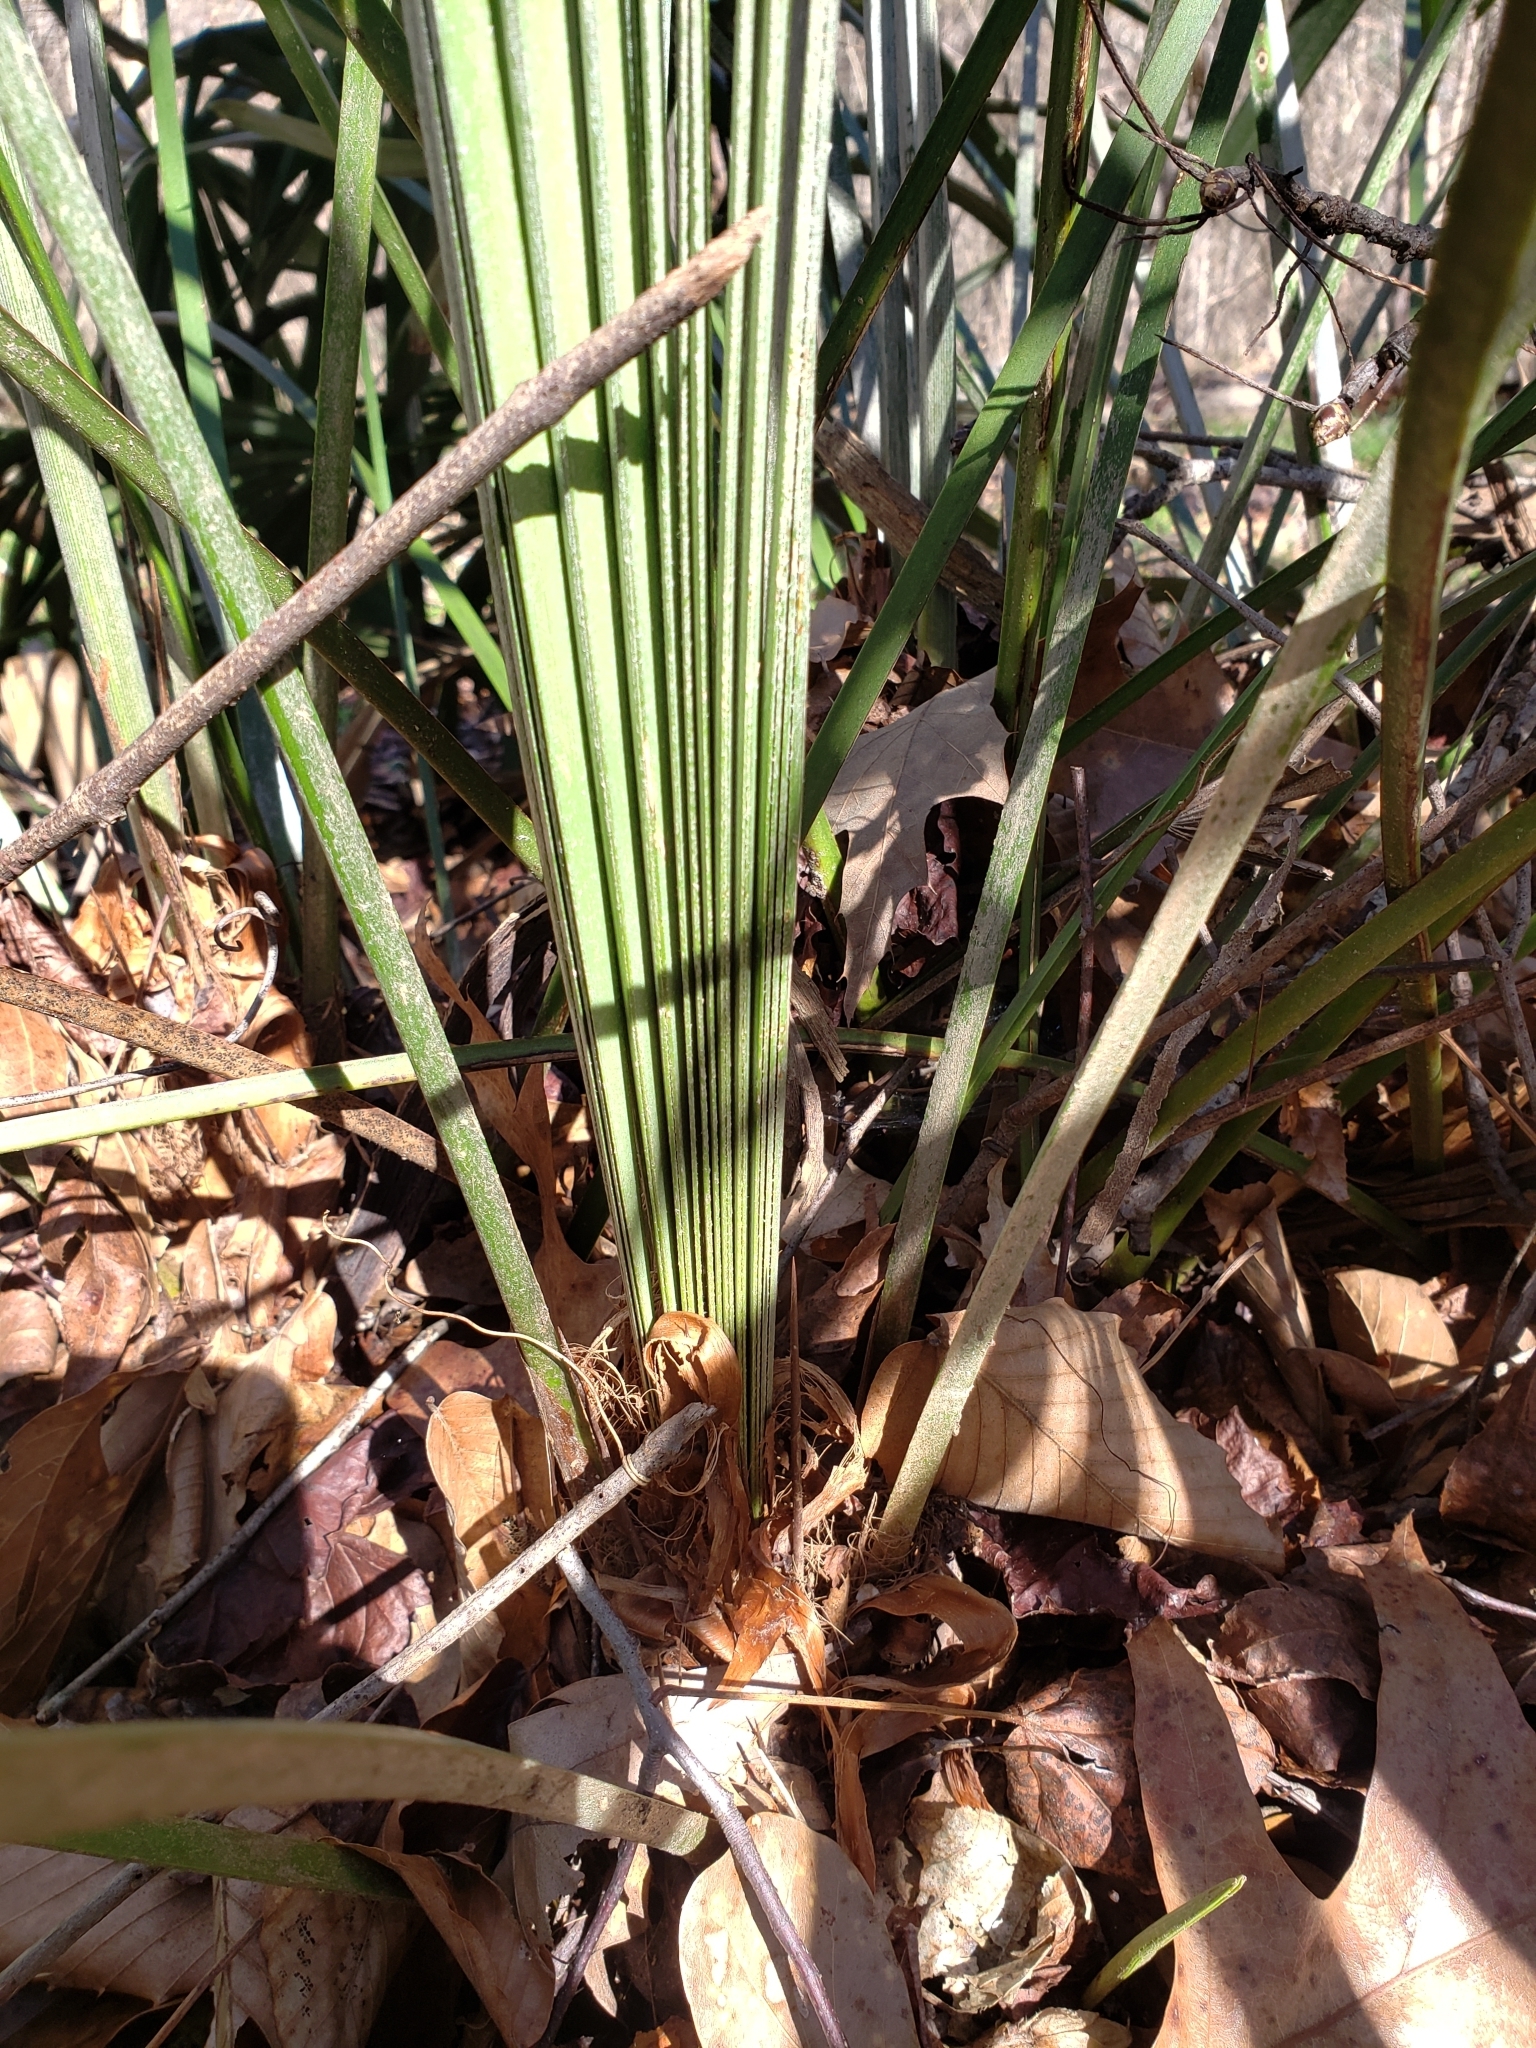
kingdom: Plantae
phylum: Tracheophyta
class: Liliopsida
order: Arecales
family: Arecaceae
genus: Rhapidophyllum
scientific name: Rhapidophyllum hystrix
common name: Porcupine palm
